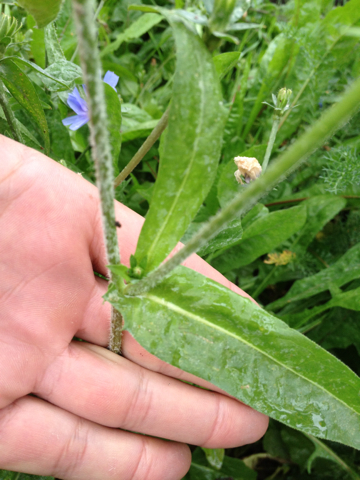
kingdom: Plantae
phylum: Tracheophyta
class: Magnoliopsida
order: Asterales
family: Asteraceae
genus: Cichorium
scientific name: Cichorium intybus
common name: Chicory
